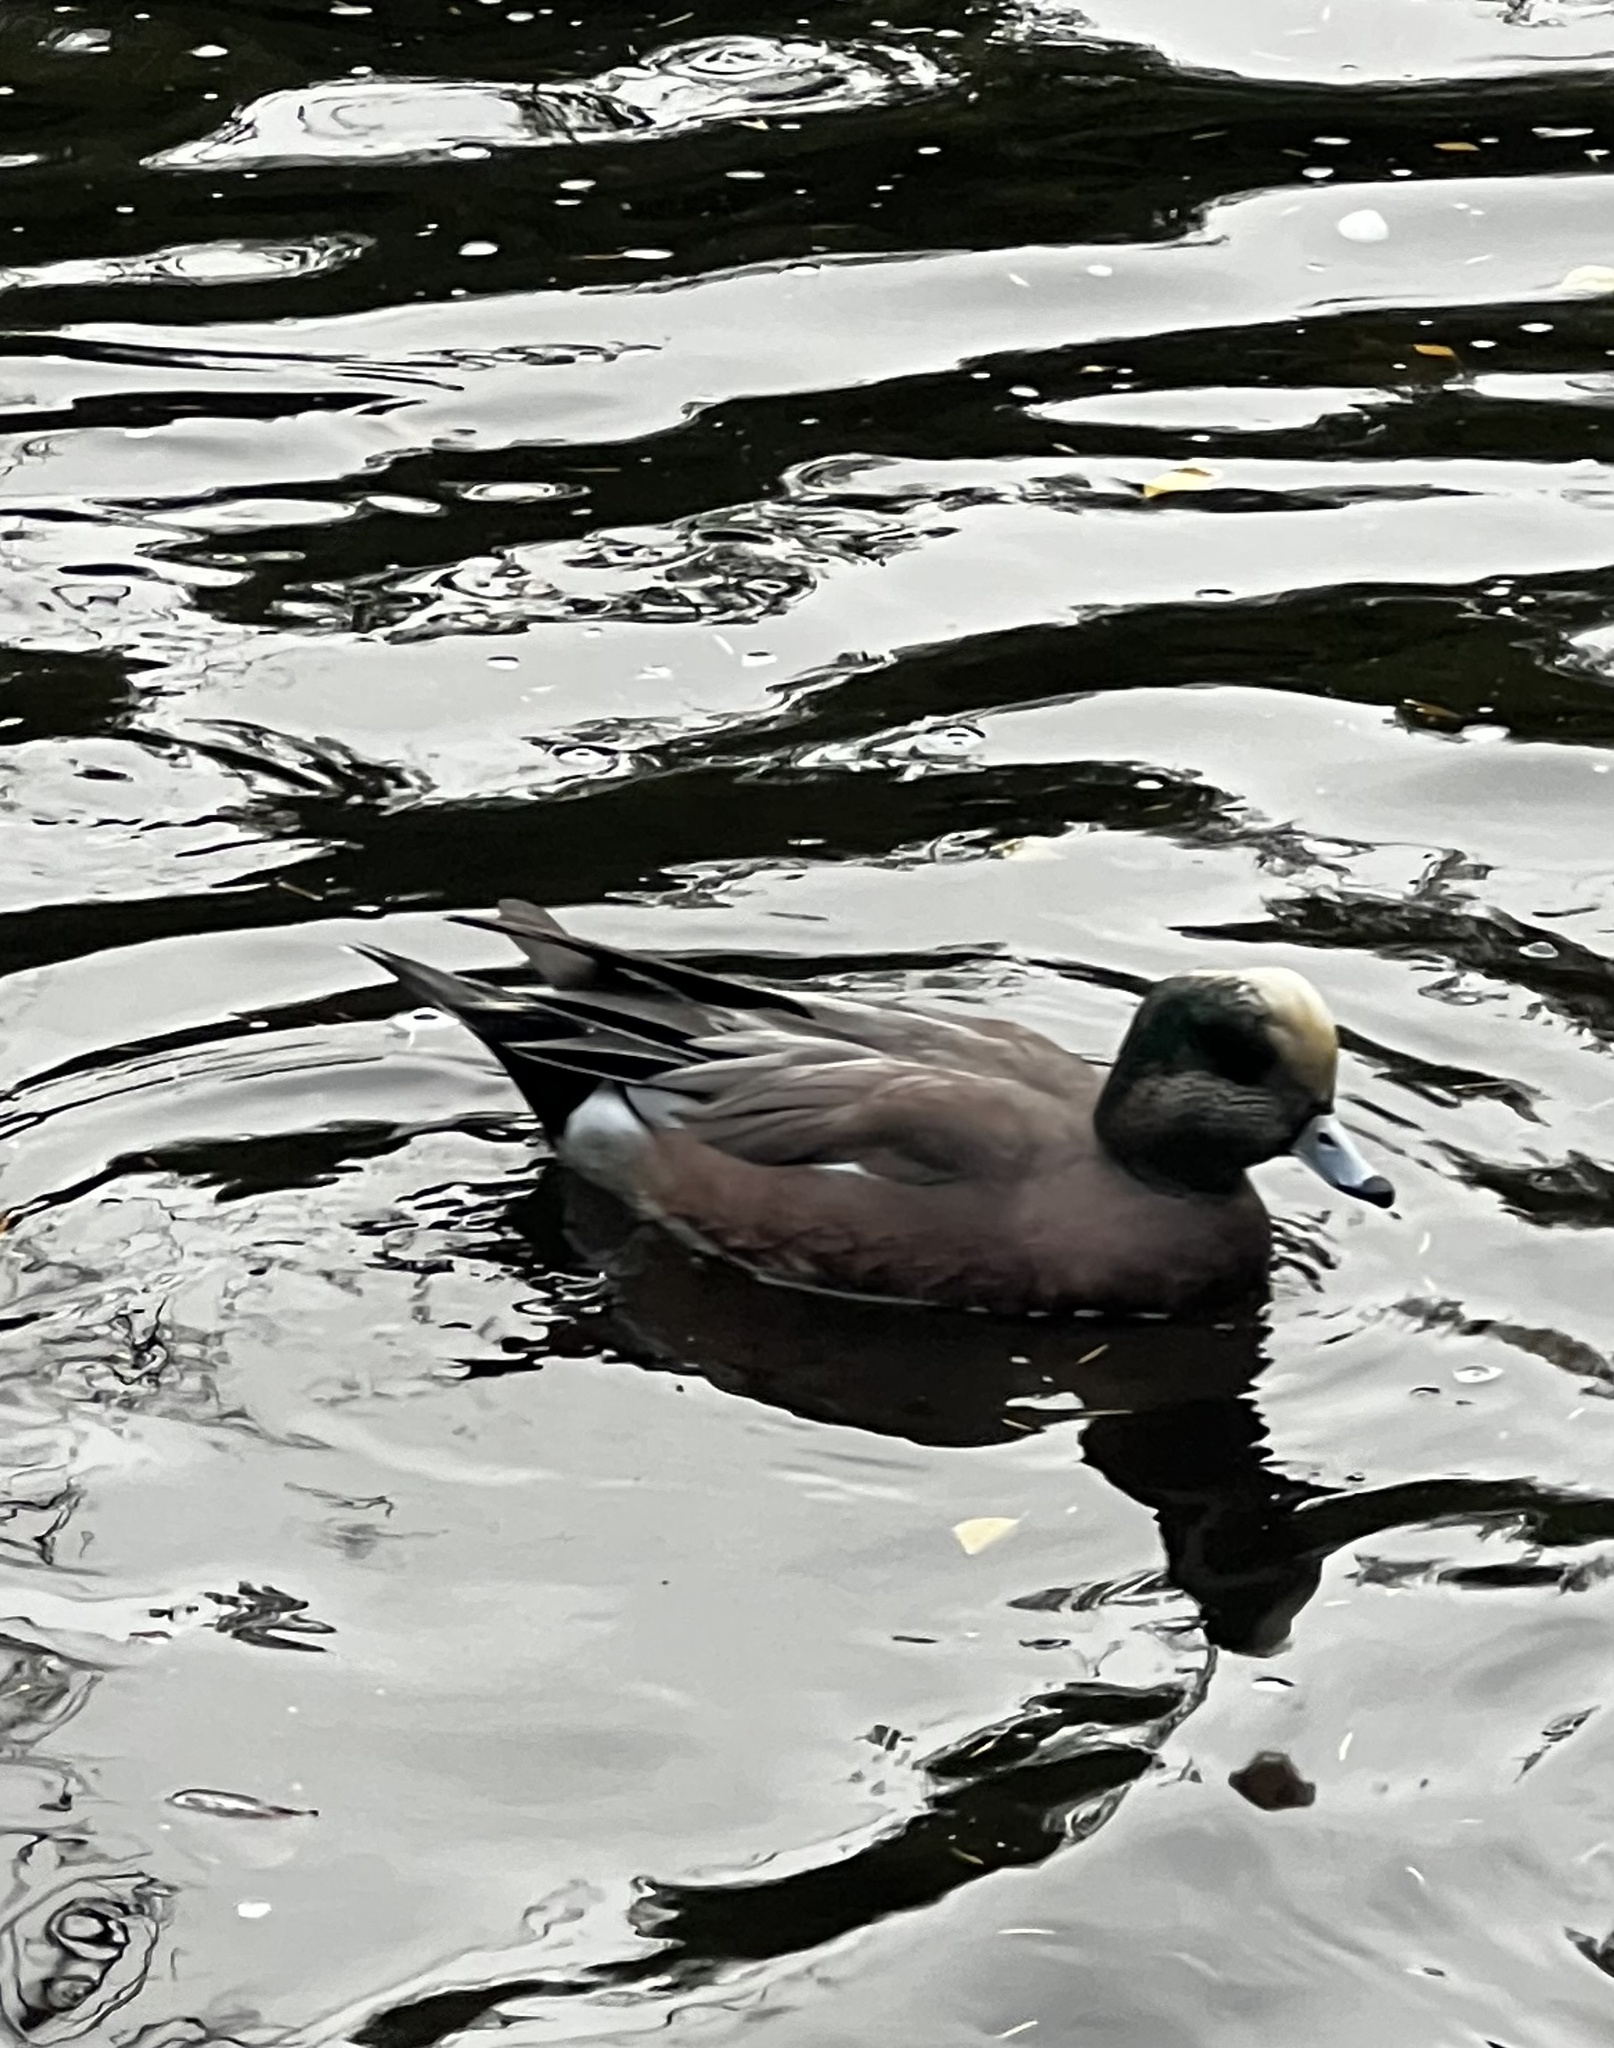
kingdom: Animalia
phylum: Chordata
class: Aves
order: Anseriformes
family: Anatidae
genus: Mareca
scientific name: Mareca americana
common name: American wigeon
